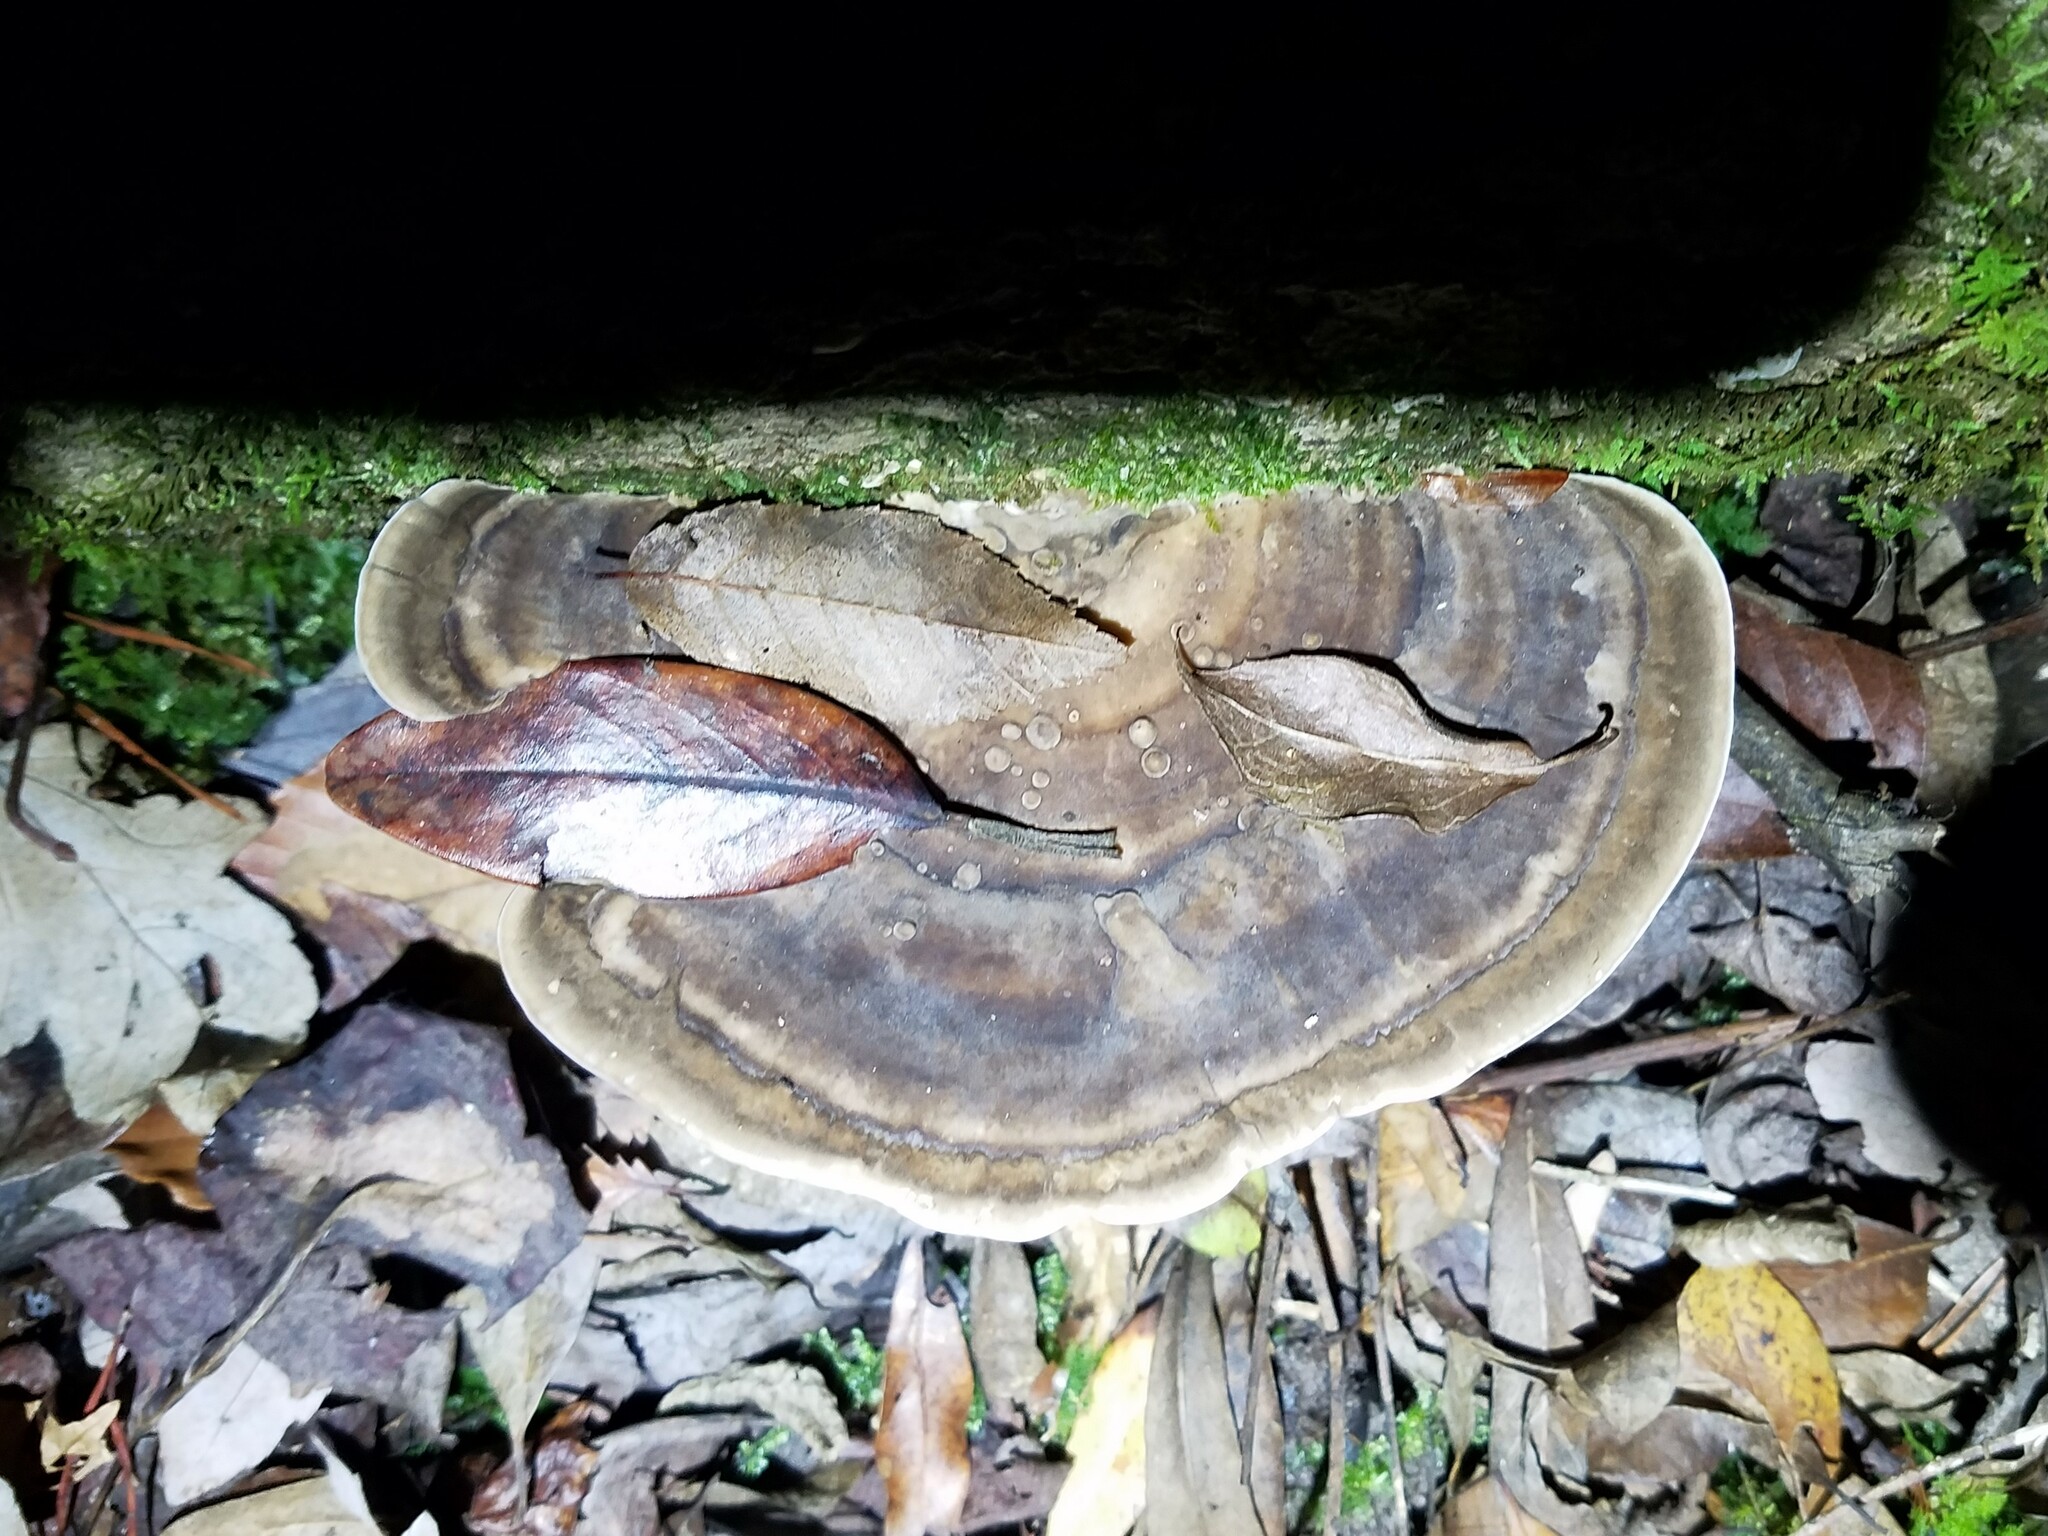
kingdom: Fungi
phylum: Basidiomycota
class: Agaricomycetes
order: Polyporales
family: Polyporaceae
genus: Trametes
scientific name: Trametes lactinea
